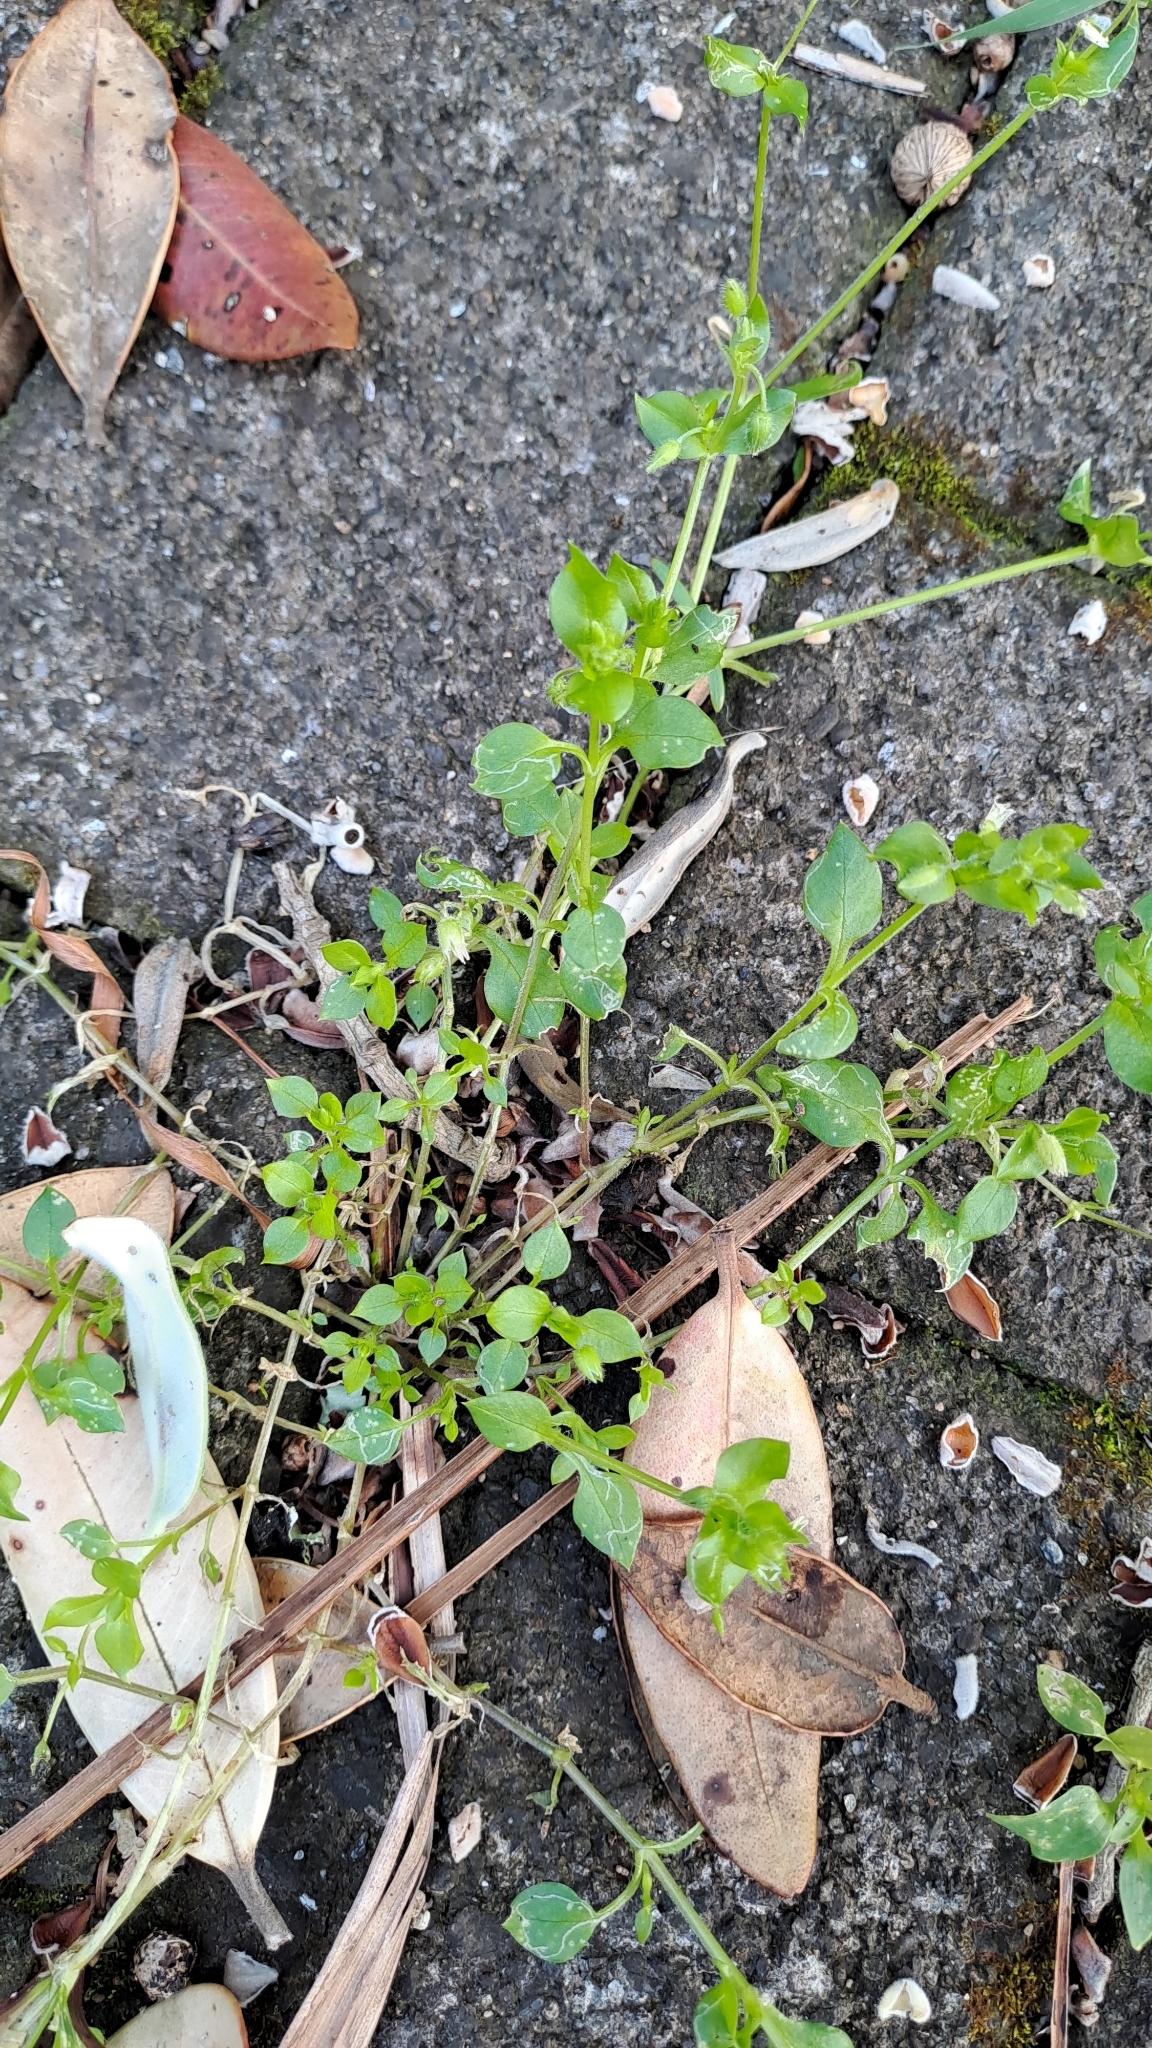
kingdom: Plantae
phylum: Tracheophyta
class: Magnoliopsida
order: Caryophyllales
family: Caryophyllaceae
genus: Stellaria
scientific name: Stellaria media
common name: Common chickweed
